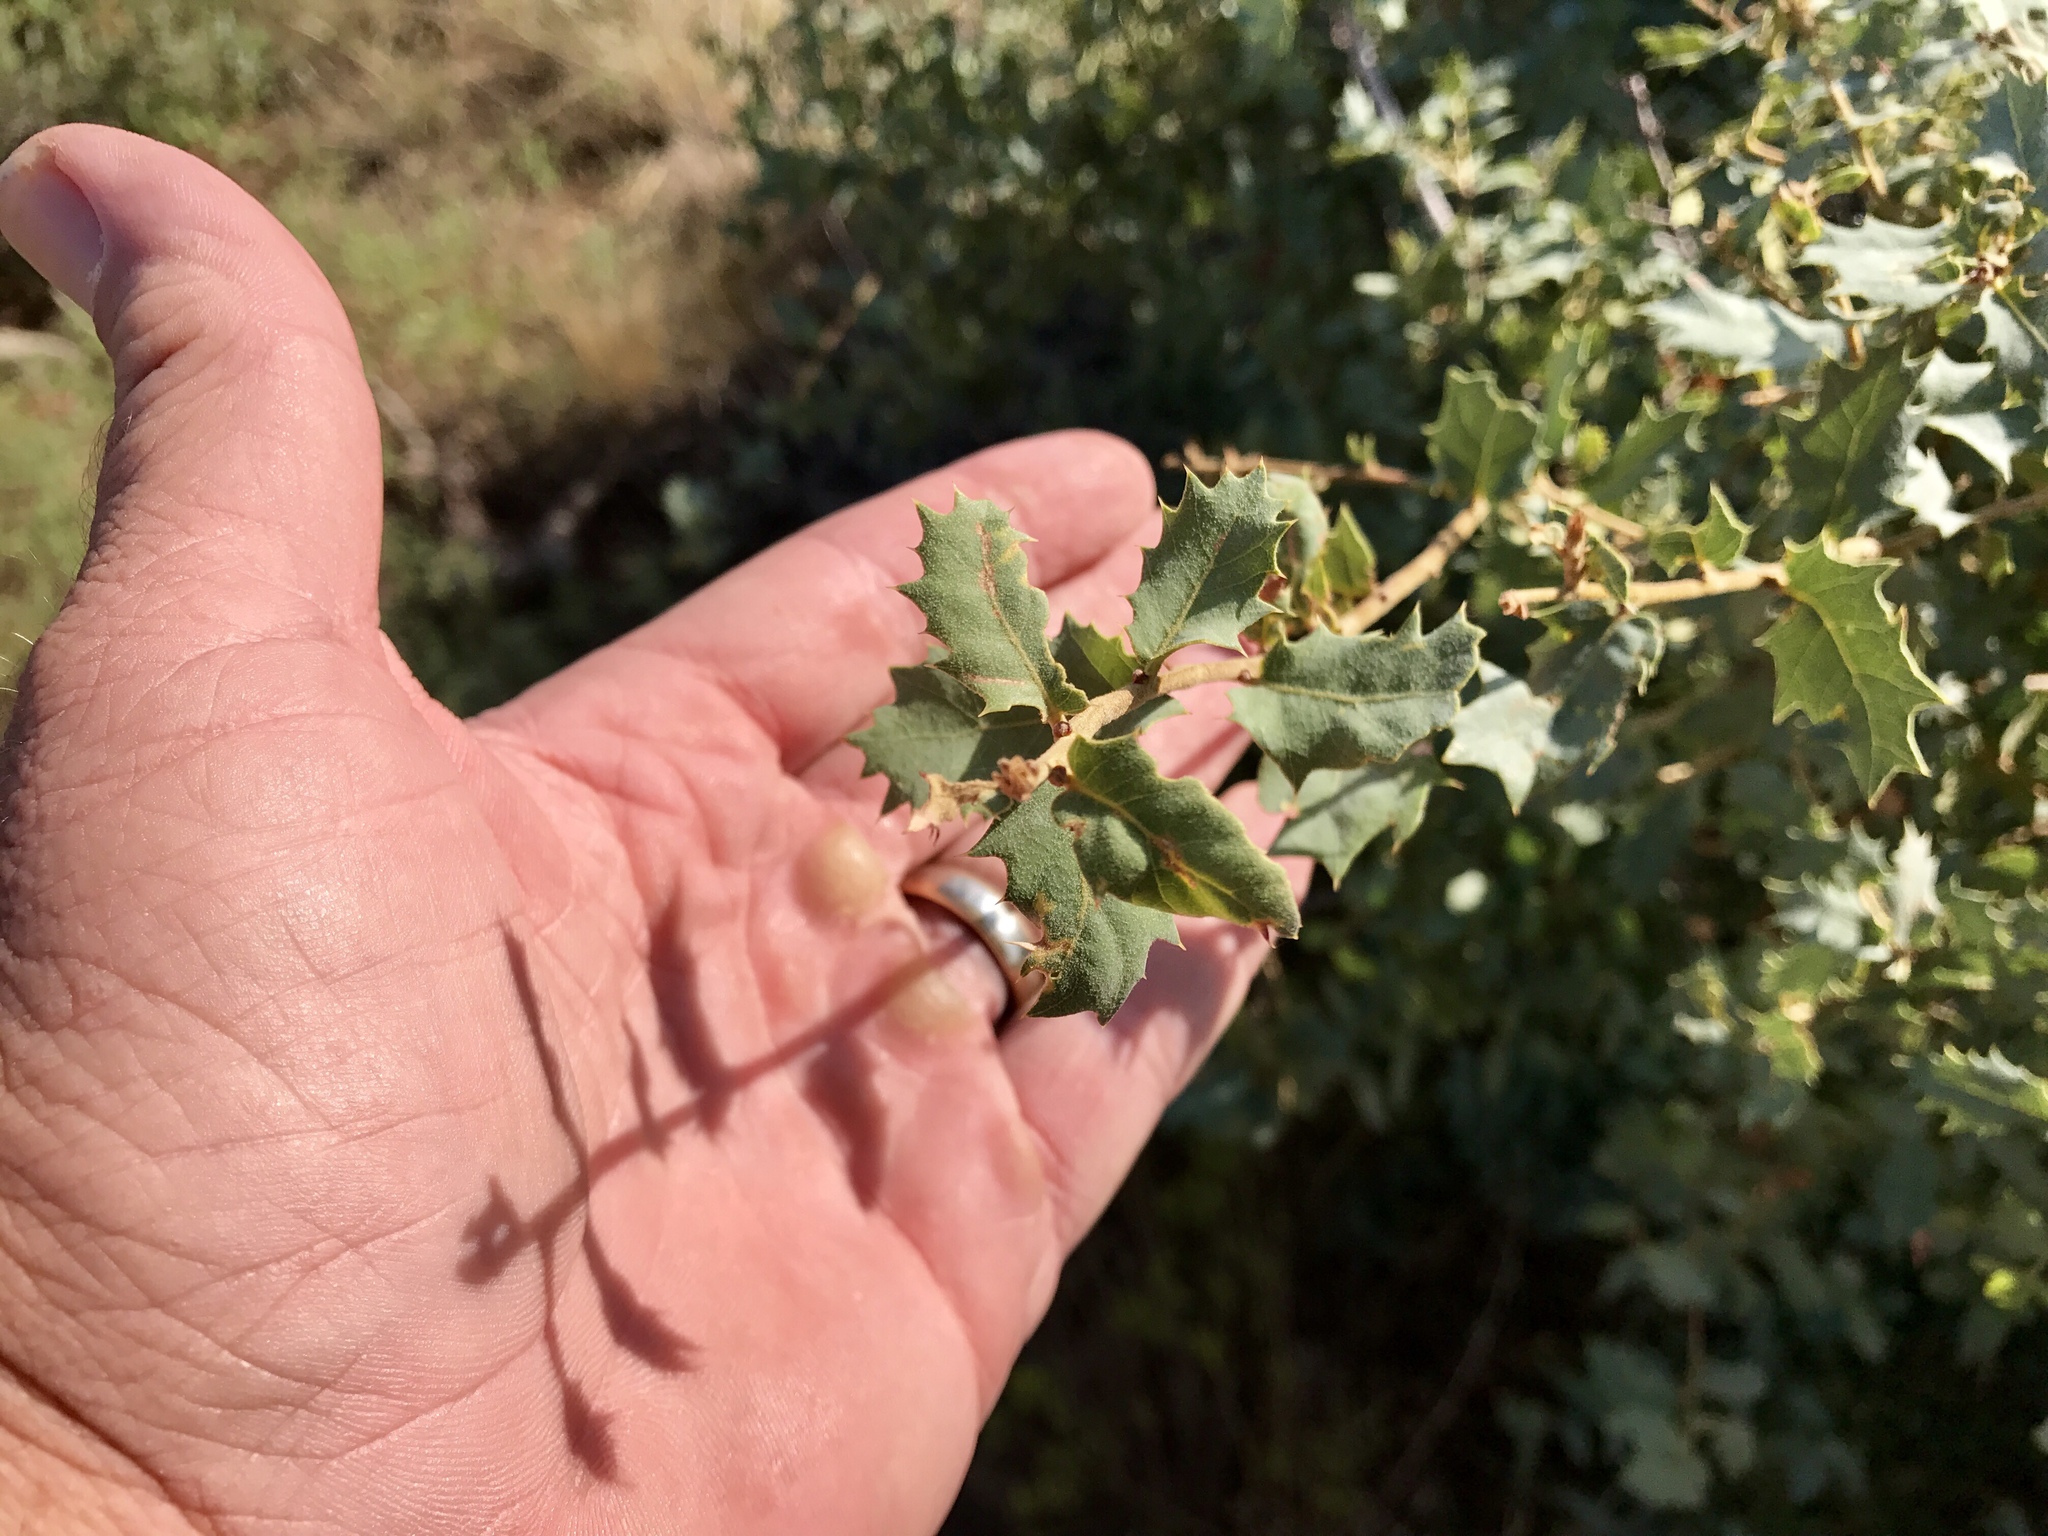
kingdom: Plantae
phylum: Tracheophyta
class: Magnoliopsida
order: Fagales
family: Fagaceae
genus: Quercus
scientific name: Quercus turbinella
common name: Sonoran scrub oak
